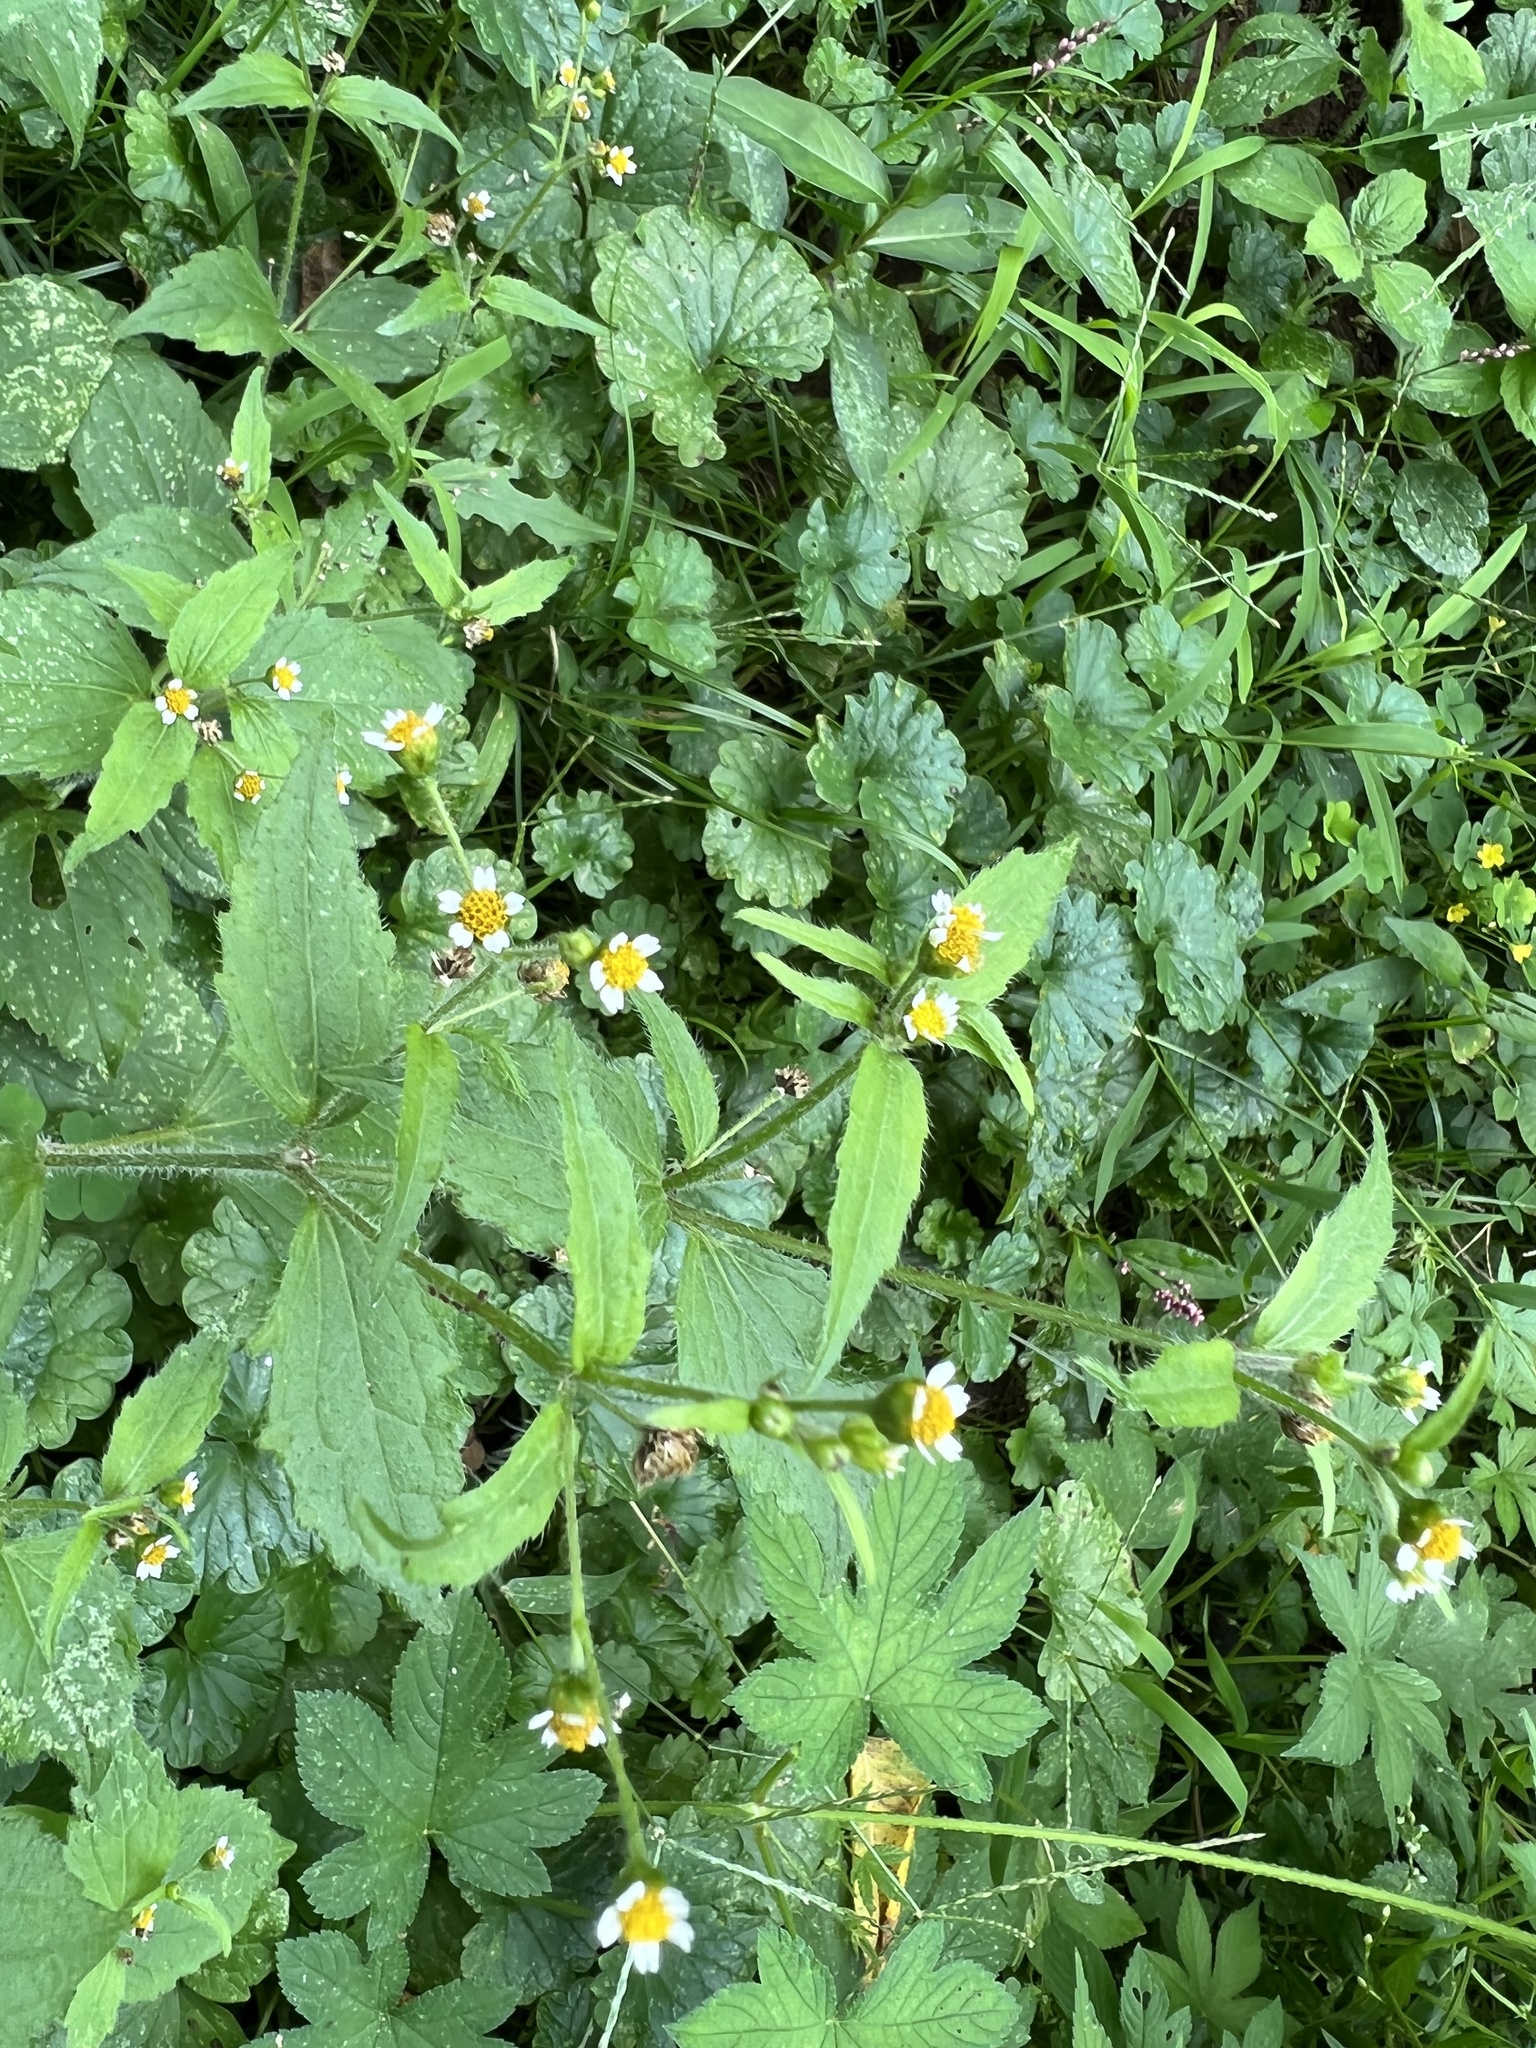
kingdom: Plantae
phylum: Tracheophyta
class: Magnoliopsida
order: Asterales
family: Asteraceae
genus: Galinsoga
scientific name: Galinsoga quadriradiata
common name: Shaggy soldier
